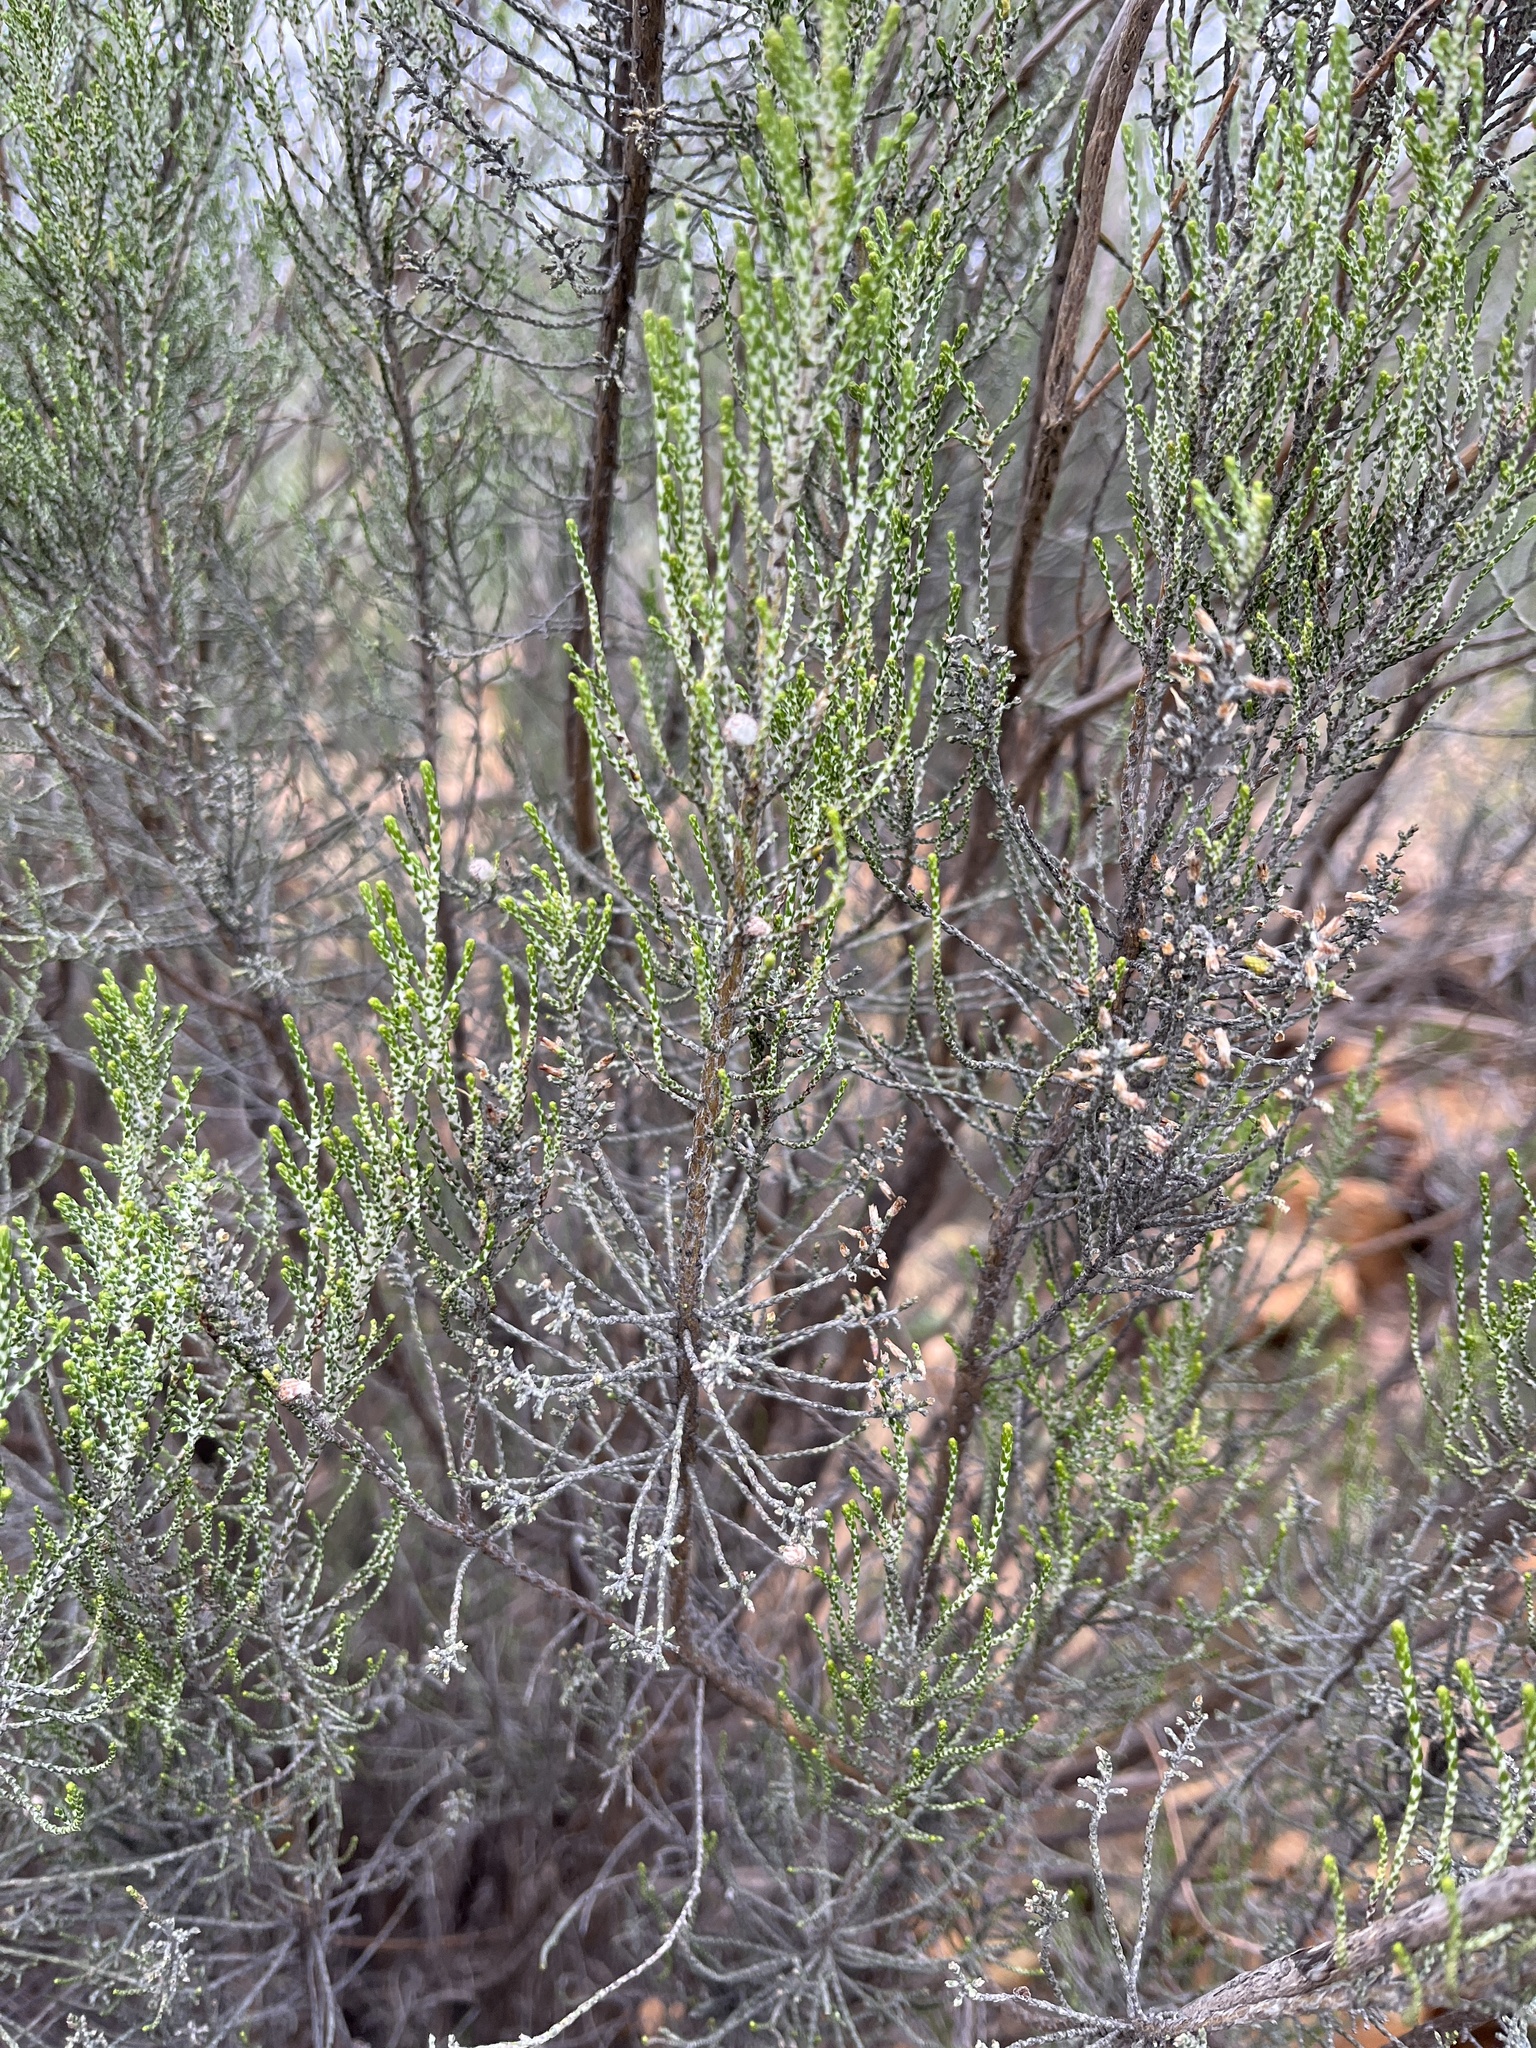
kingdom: Plantae
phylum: Tracheophyta
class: Magnoliopsida
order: Asterales
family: Asteraceae
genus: Dicerothamnus
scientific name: Dicerothamnus rhinocerotis
